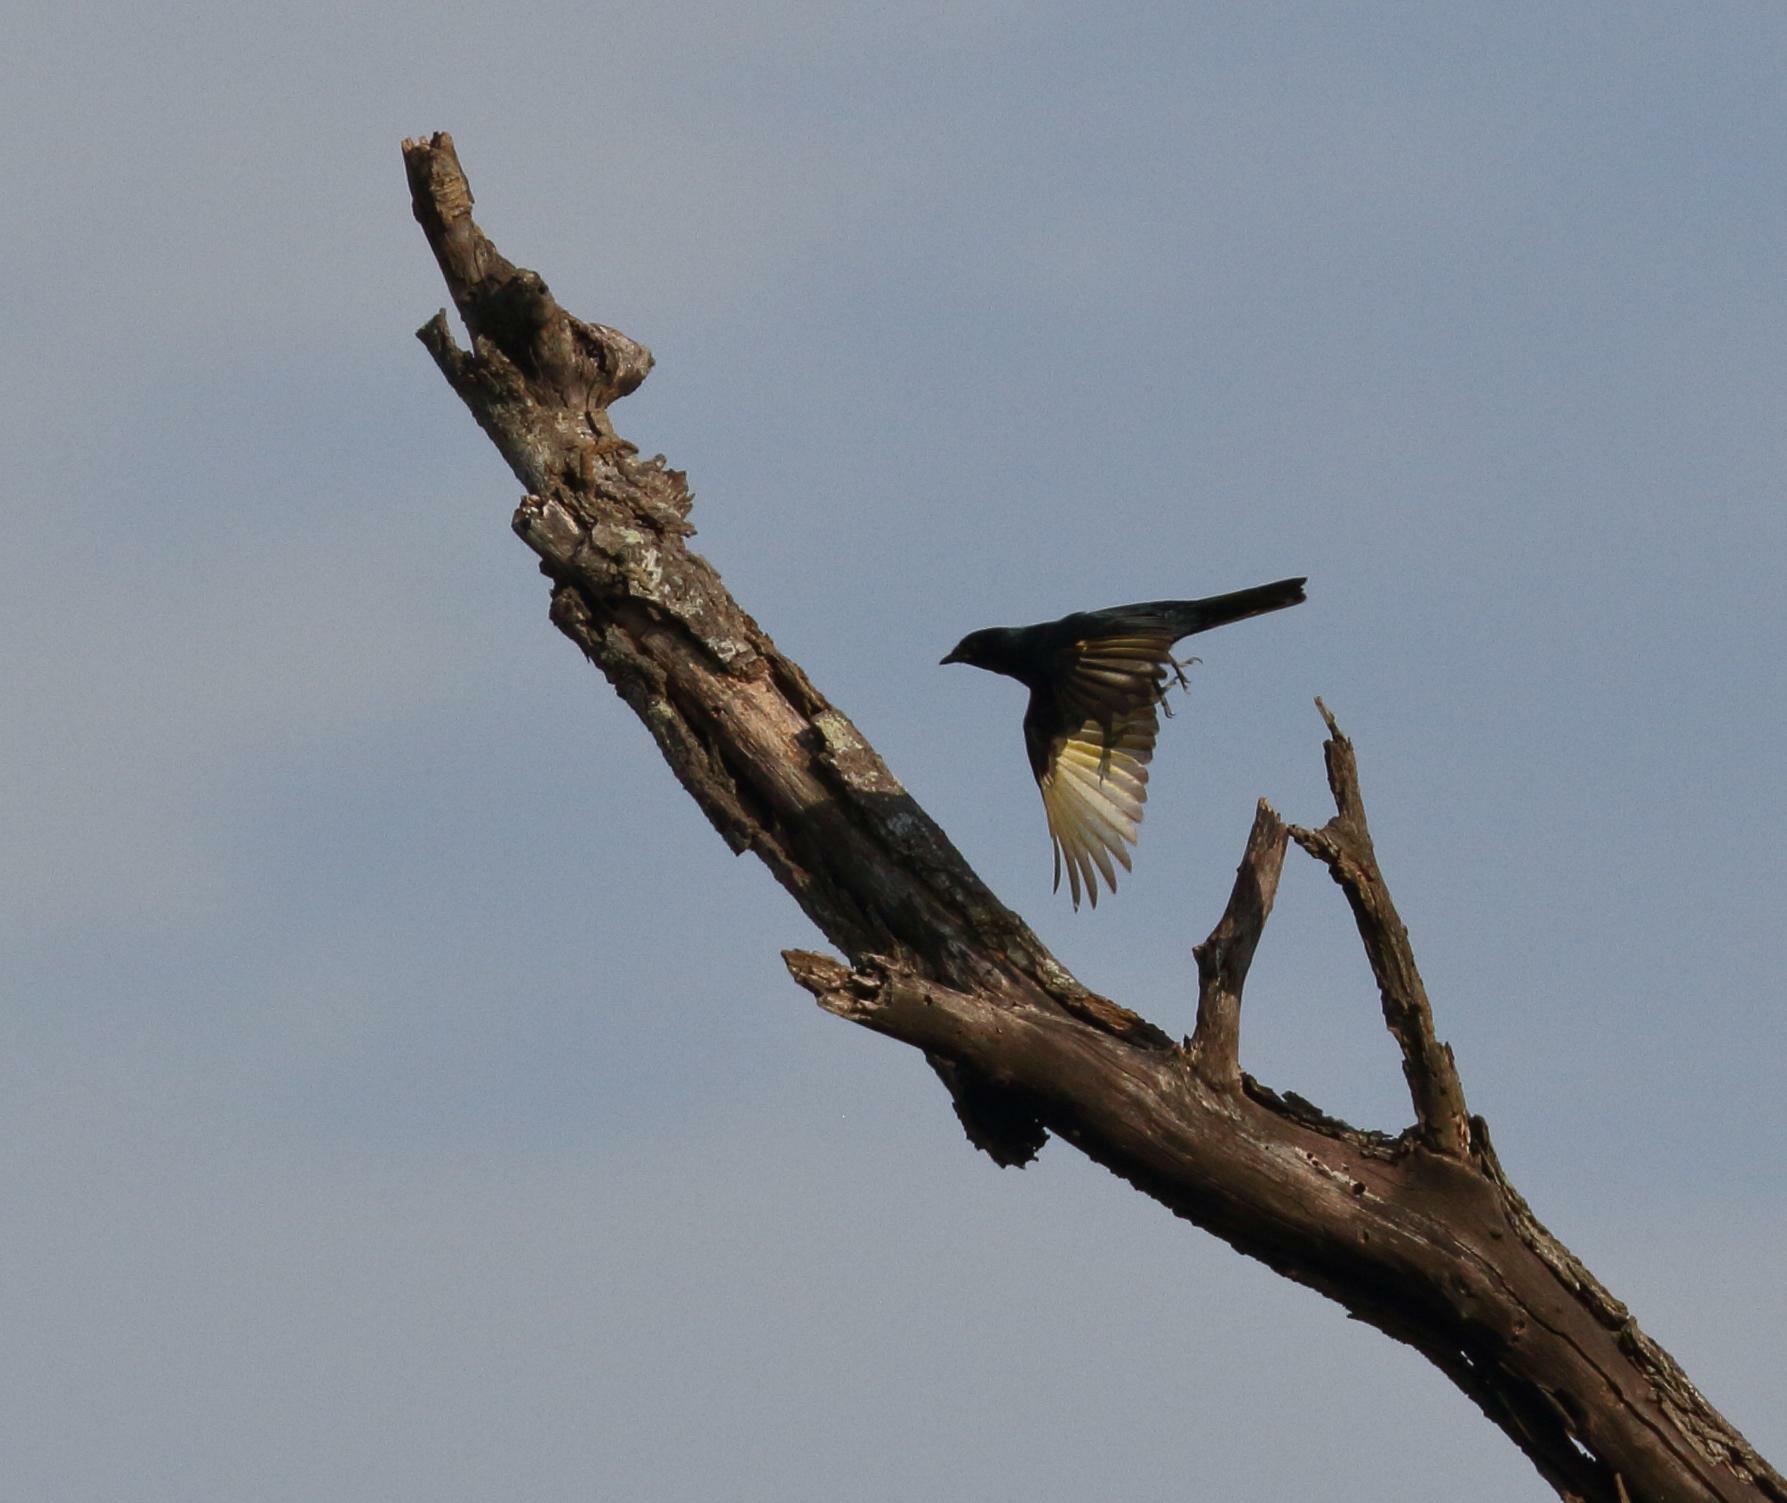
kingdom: Animalia
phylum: Chordata
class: Aves
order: Passeriformes
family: Campephagidae
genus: Campephaga
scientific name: Campephaga flava
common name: Black cuckooshrike
